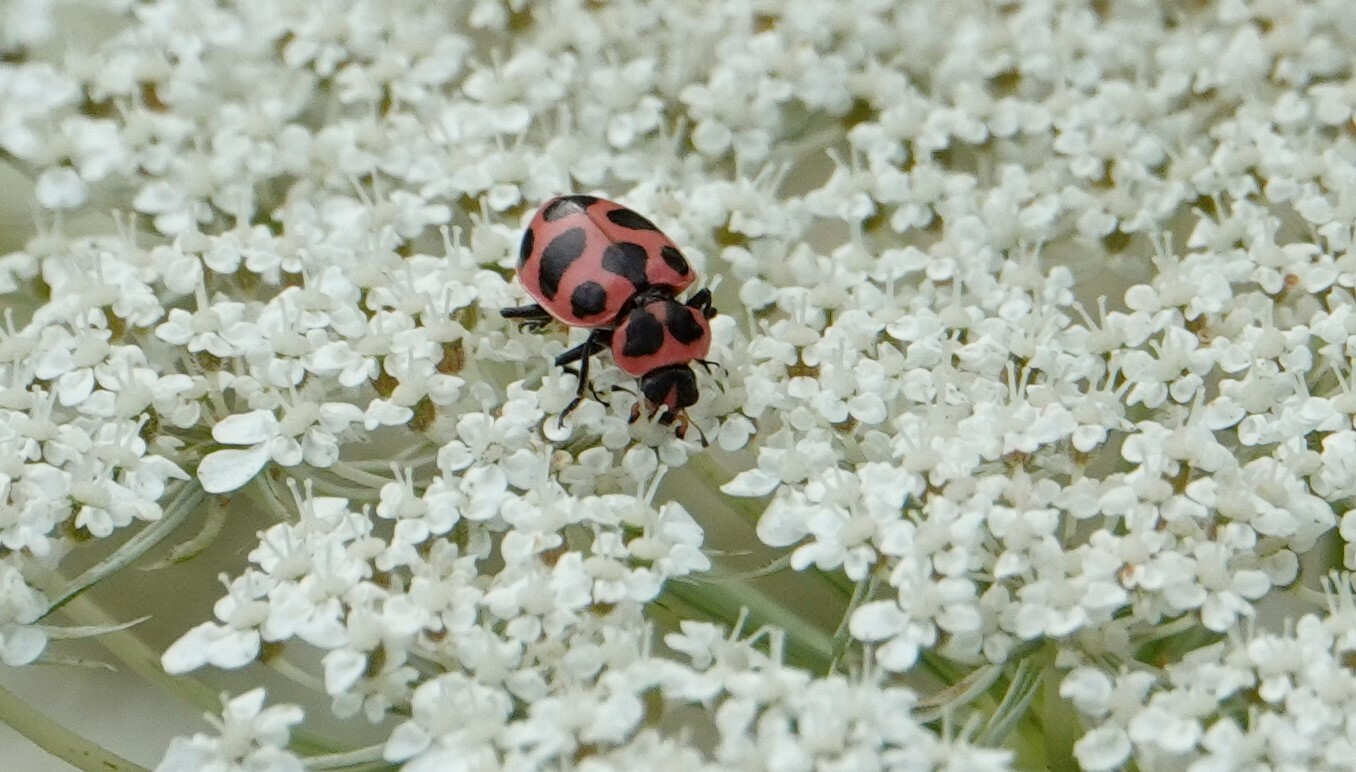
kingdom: Animalia
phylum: Arthropoda
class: Insecta
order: Coleoptera
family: Coccinellidae
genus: Coleomegilla
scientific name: Coleomegilla maculata
